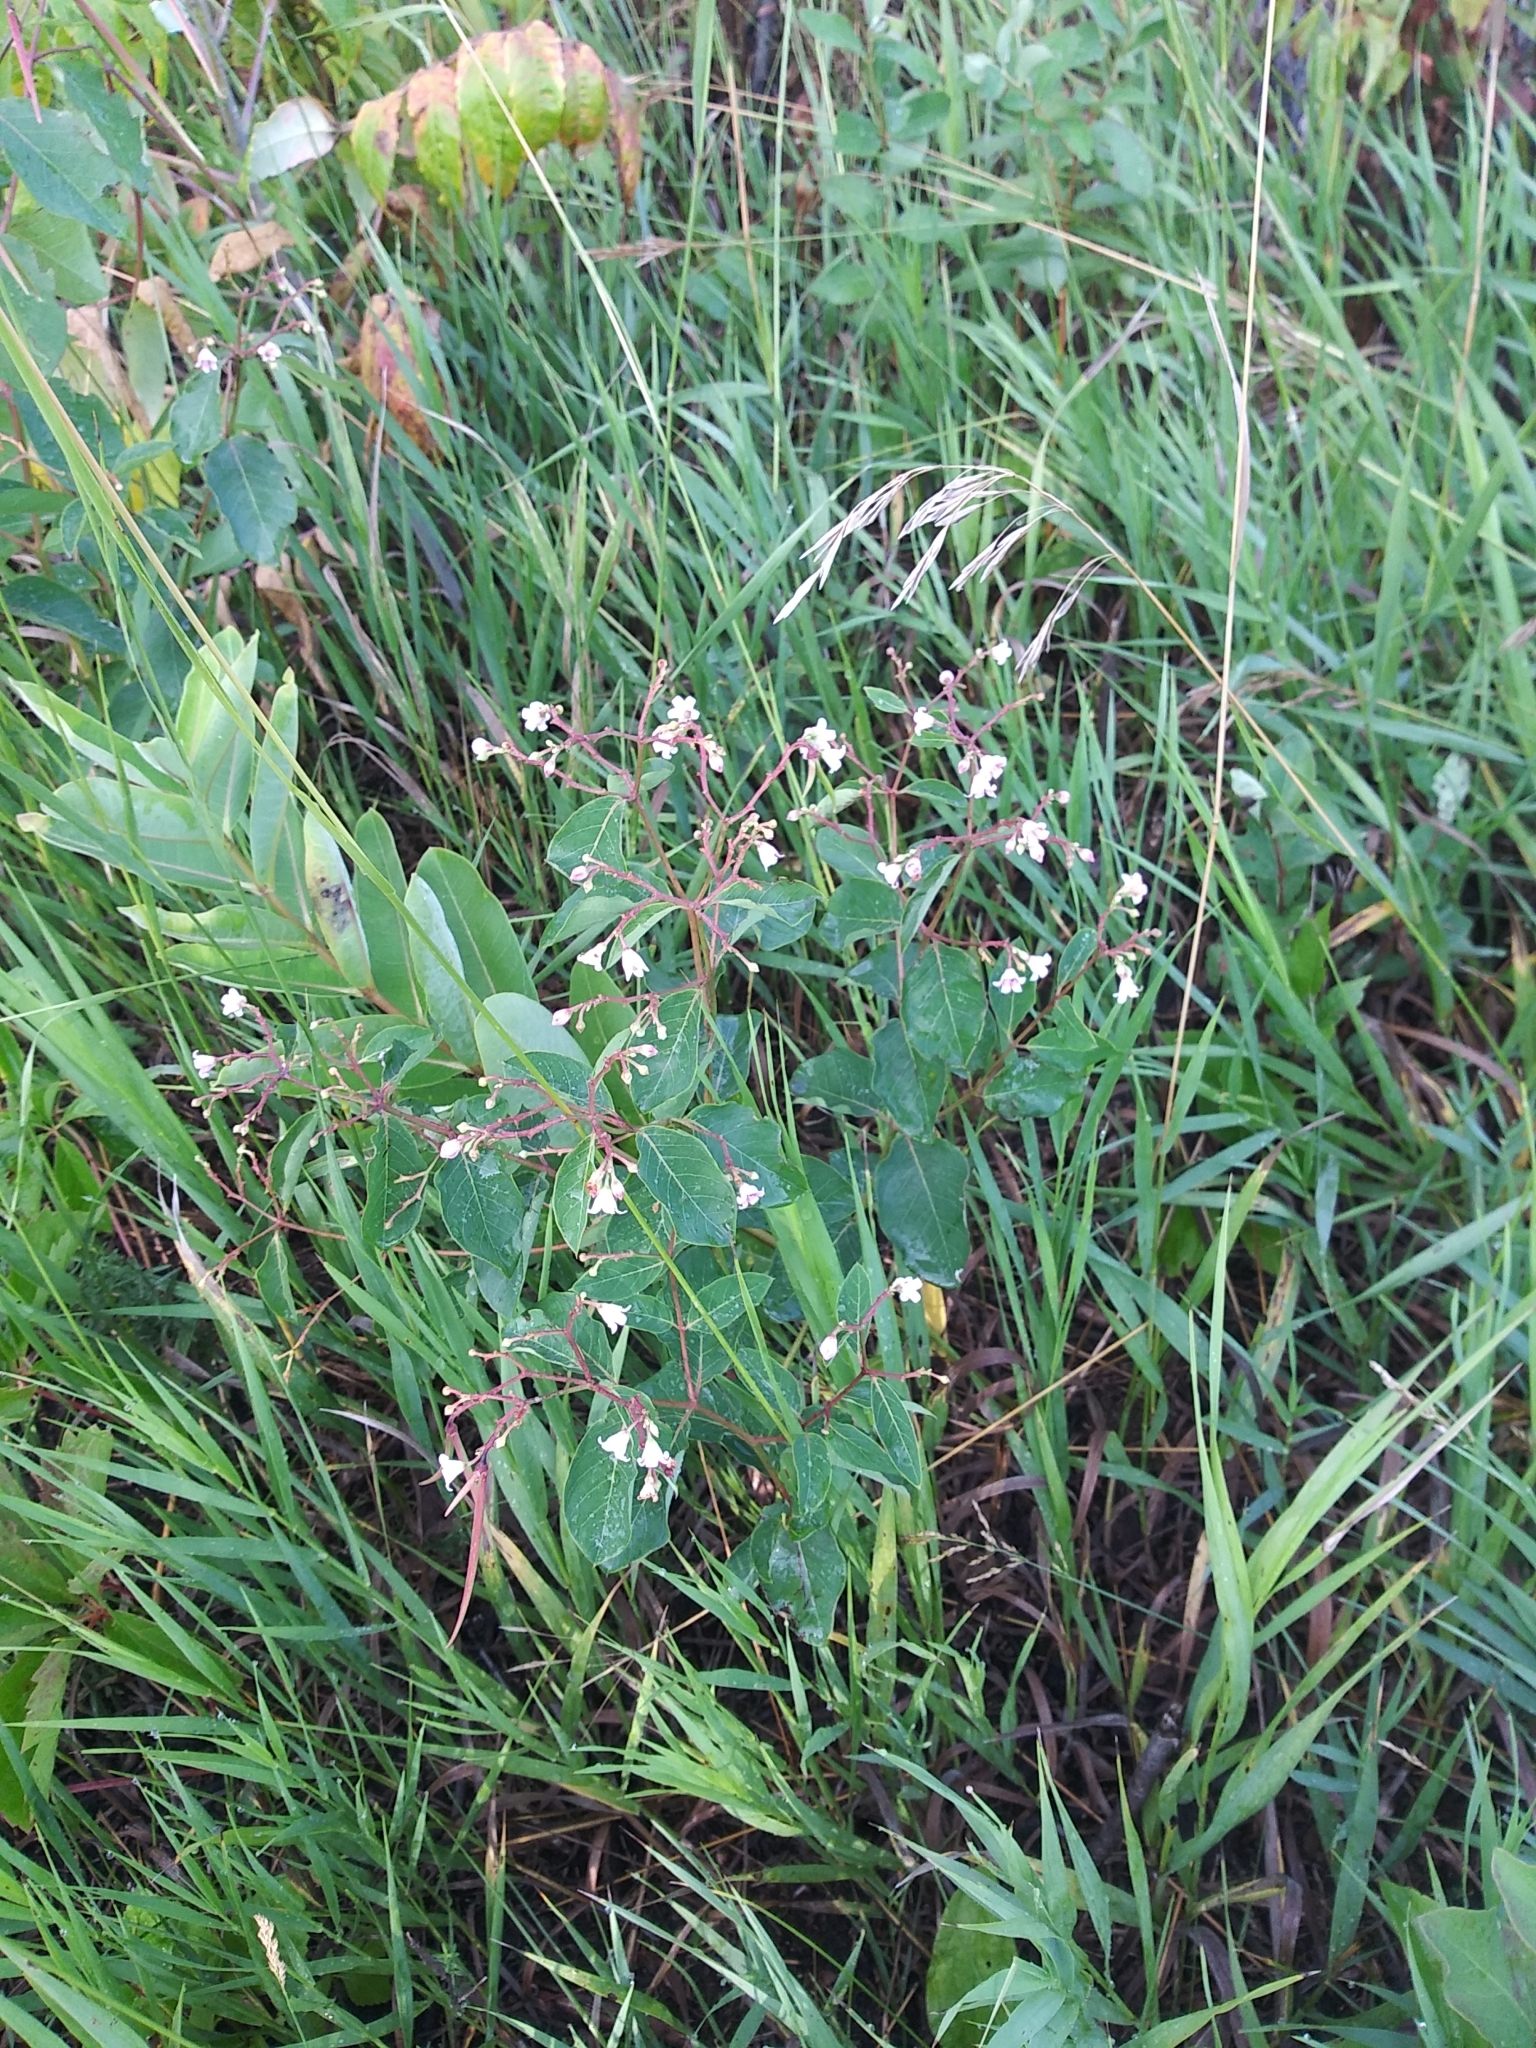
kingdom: Plantae
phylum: Tracheophyta
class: Magnoliopsida
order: Gentianales
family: Apocynaceae
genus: Apocynum
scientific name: Apocynum androsaemifolium
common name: Spreading dogbane
